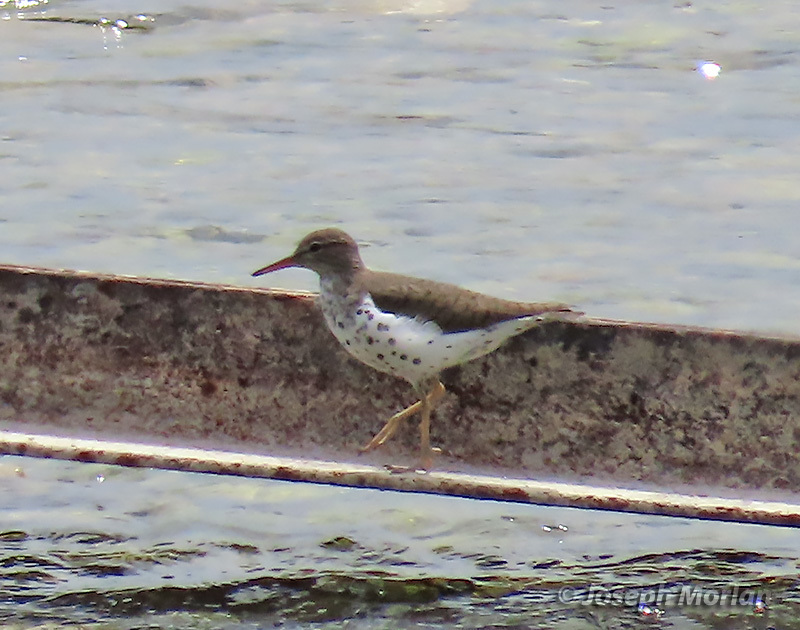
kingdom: Animalia
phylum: Chordata
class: Aves
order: Charadriiformes
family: Scolopacidae
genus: Actitis
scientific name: Actitis macularius
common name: Spotted sandpiper
